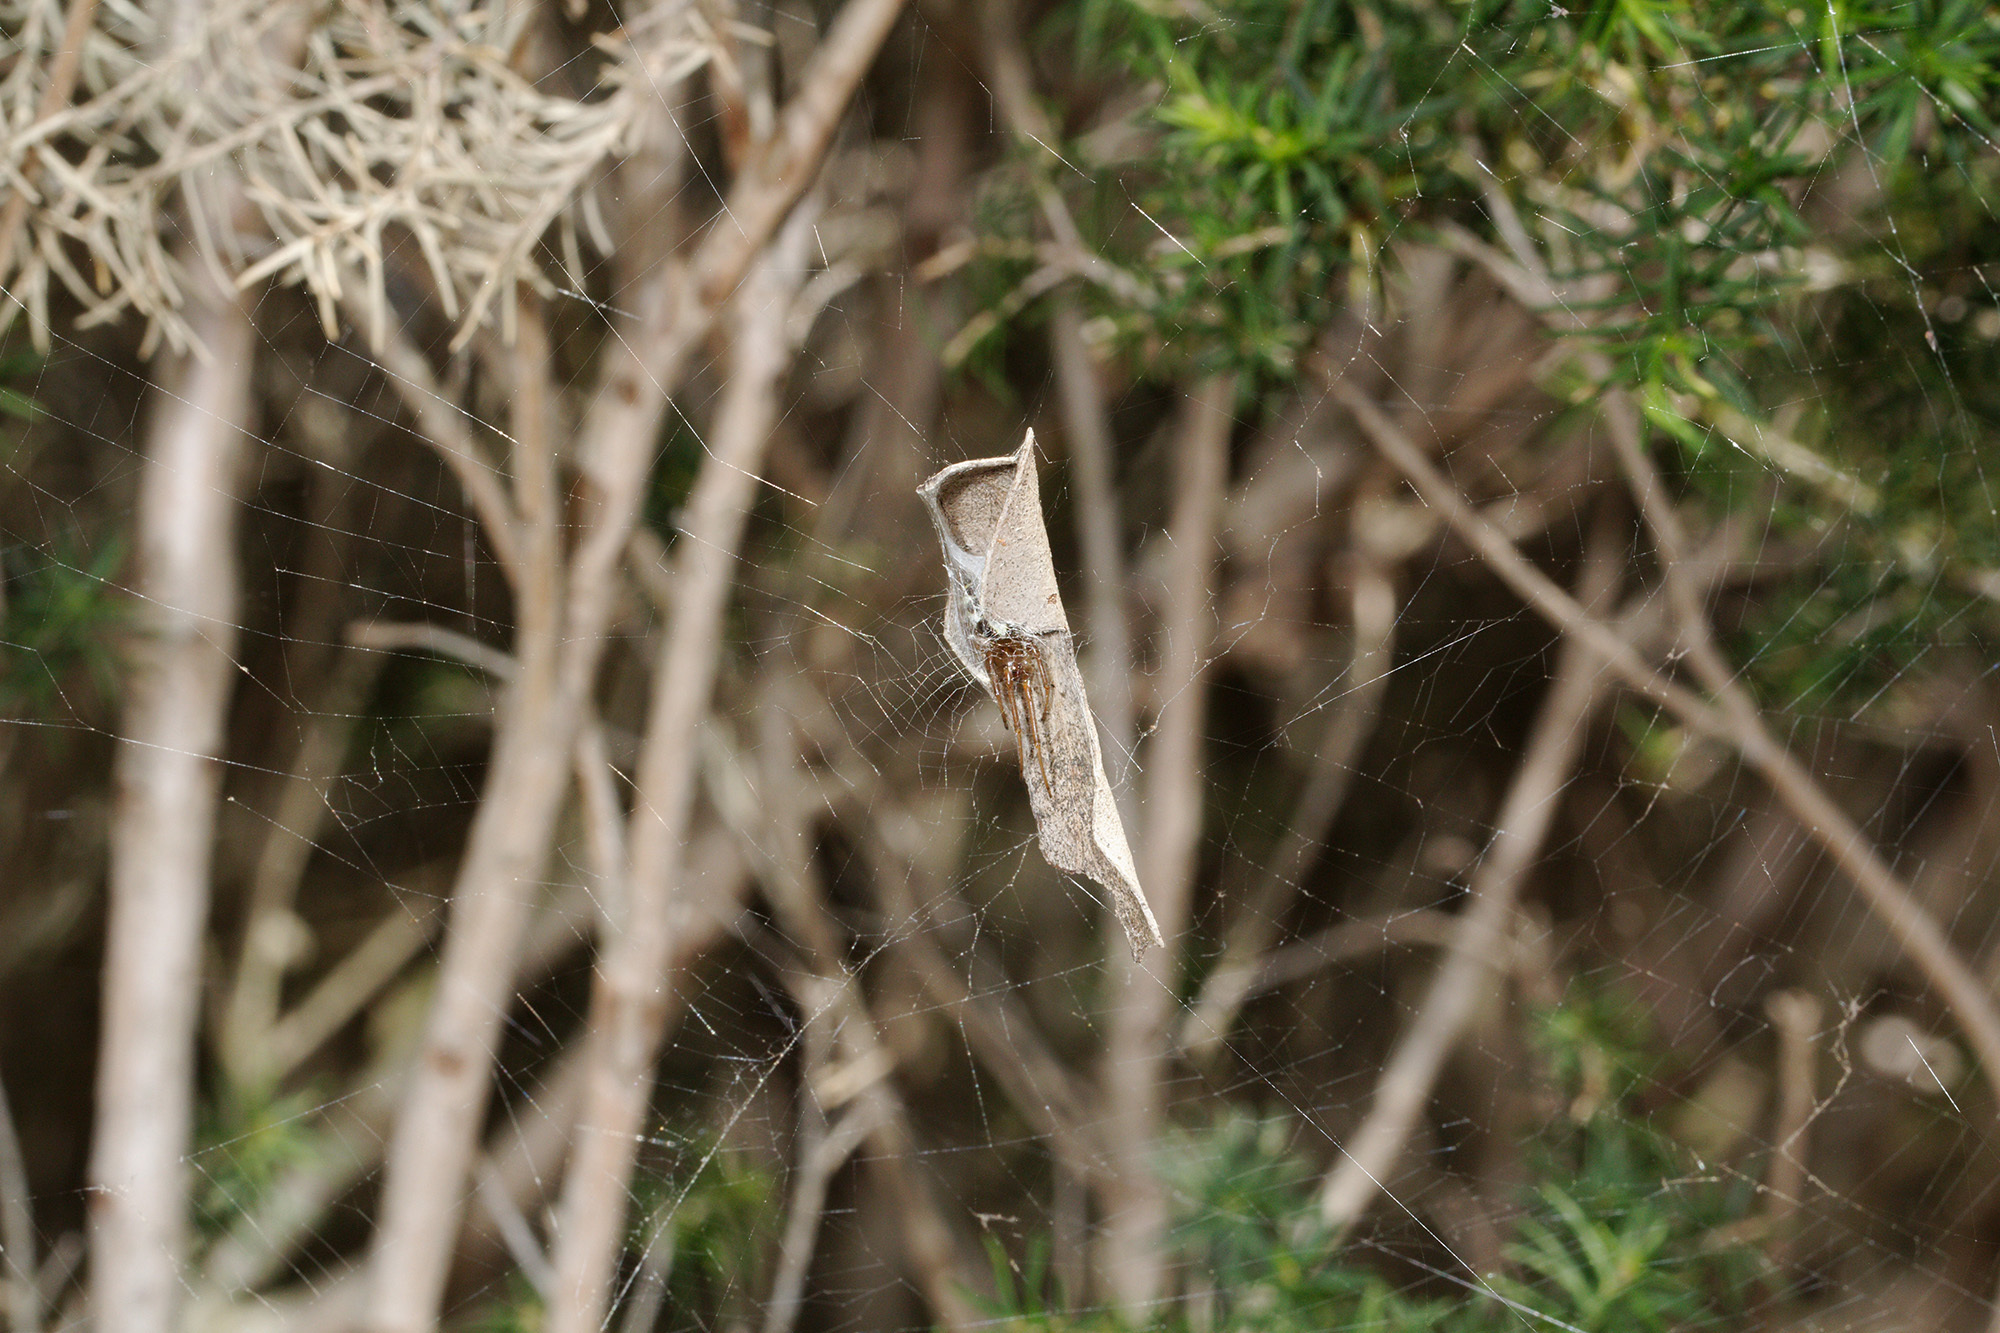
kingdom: Animalia
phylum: Arthropoda
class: Arachnida
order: Araneae
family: Araneidae
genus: Phonognatha
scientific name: Phonognatha graeffei
